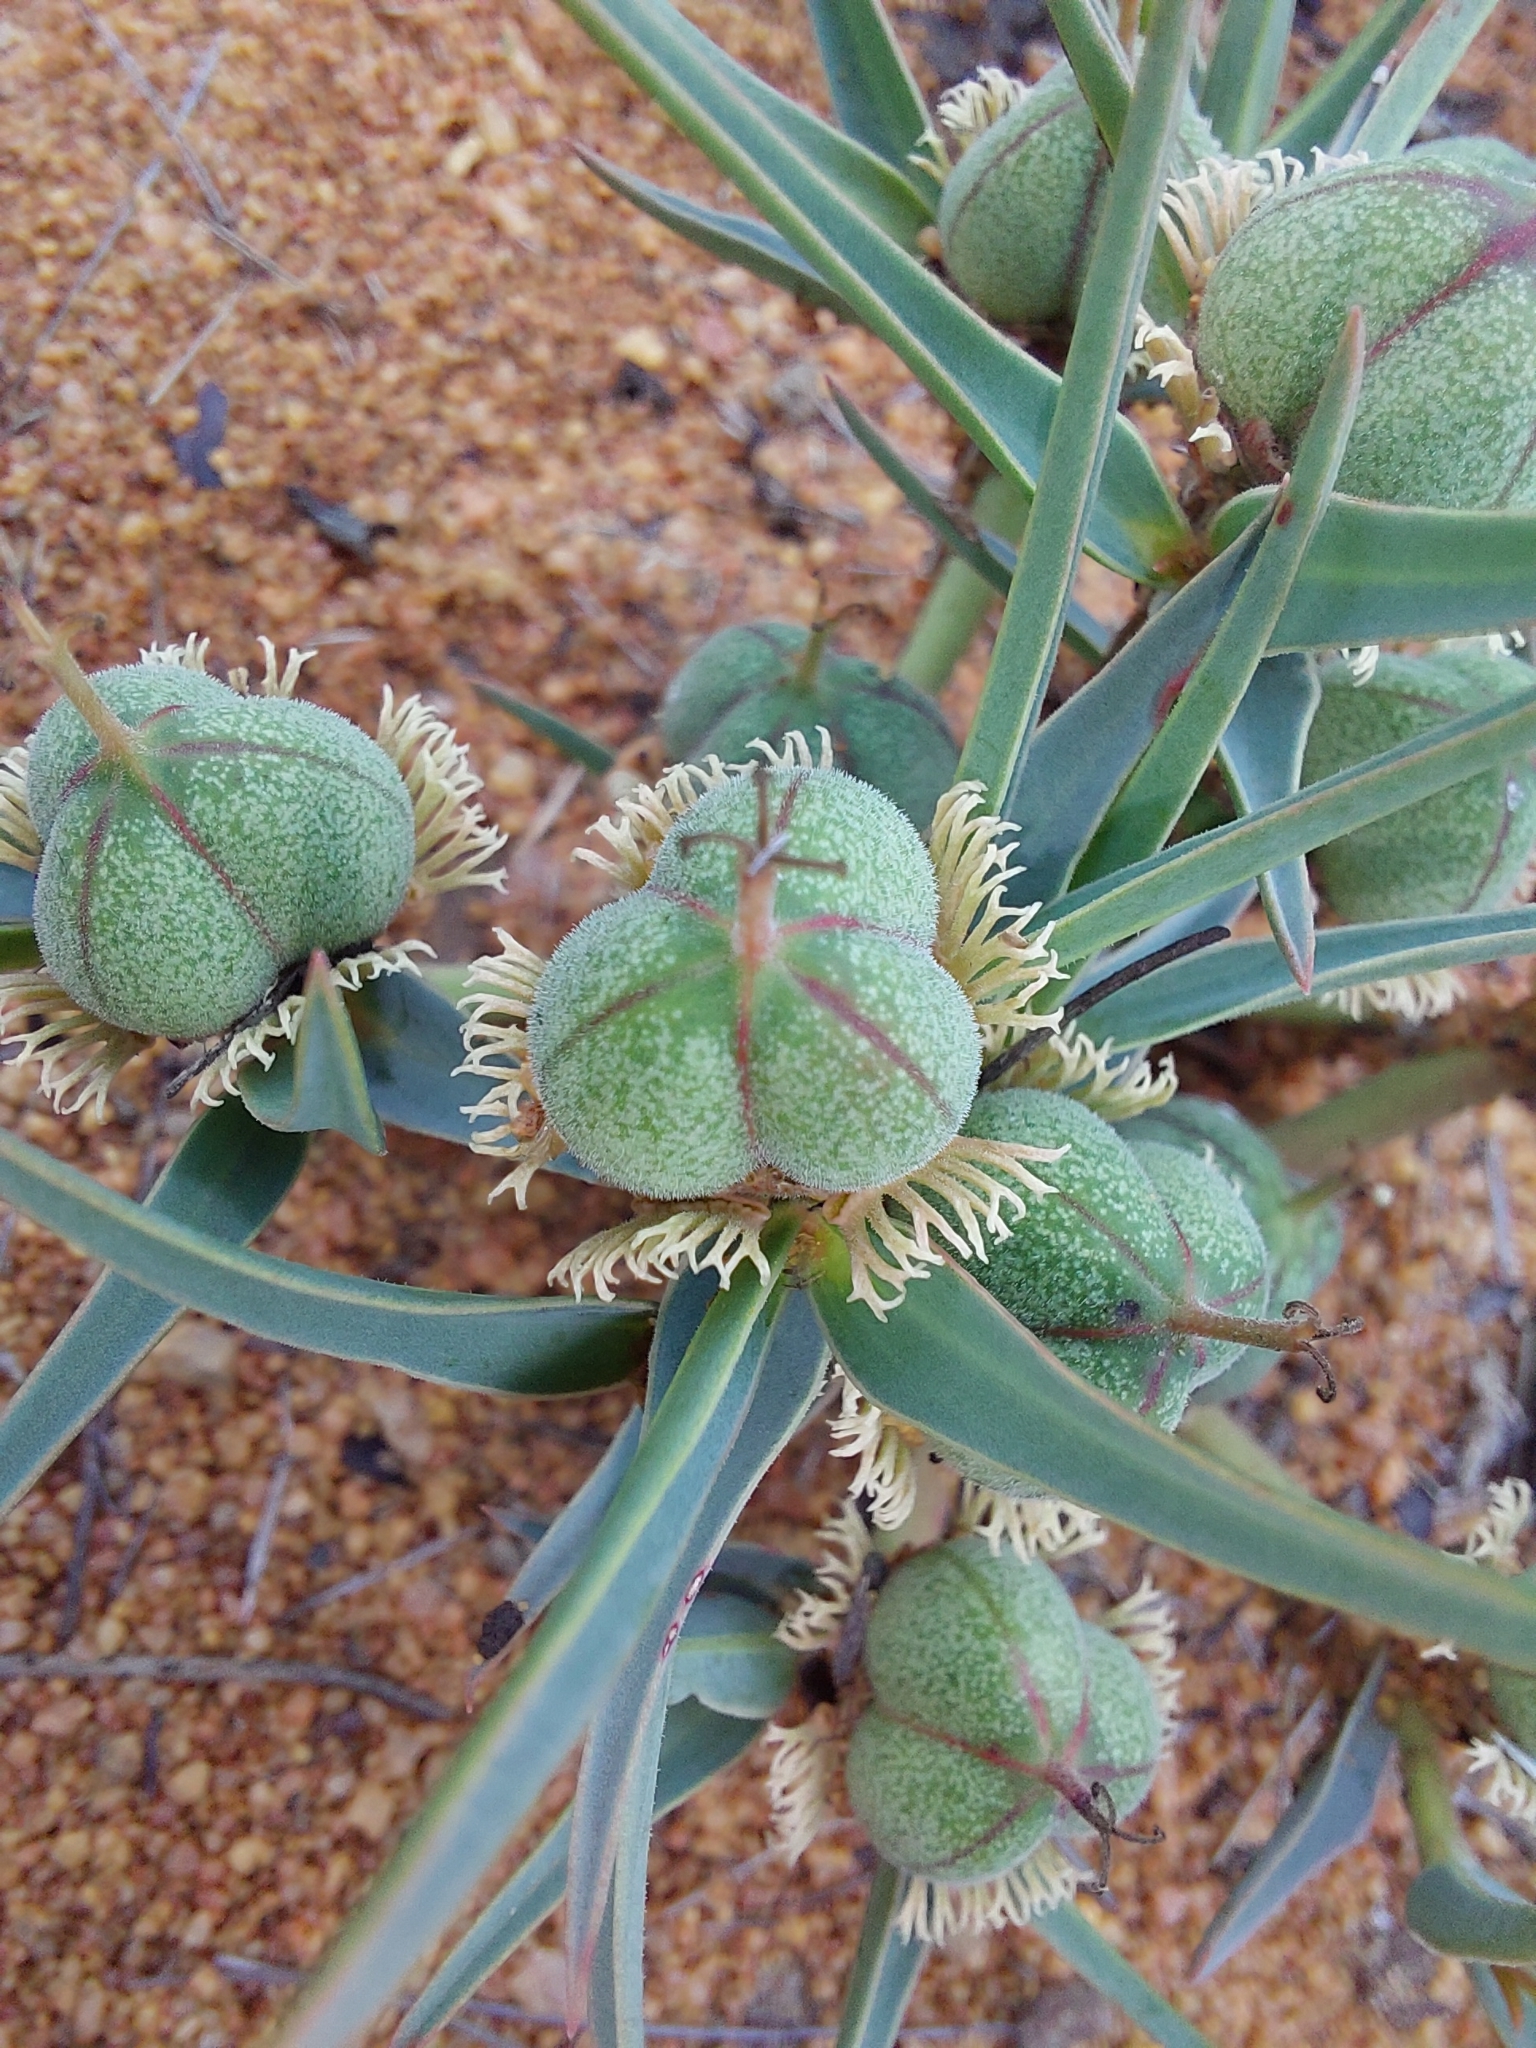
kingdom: Plantae
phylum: Tracheophyta
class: Magnoliopsida
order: Malpighiales
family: Euphorbiaceae
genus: Euphorbia
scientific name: Euphorbia trichadenia
